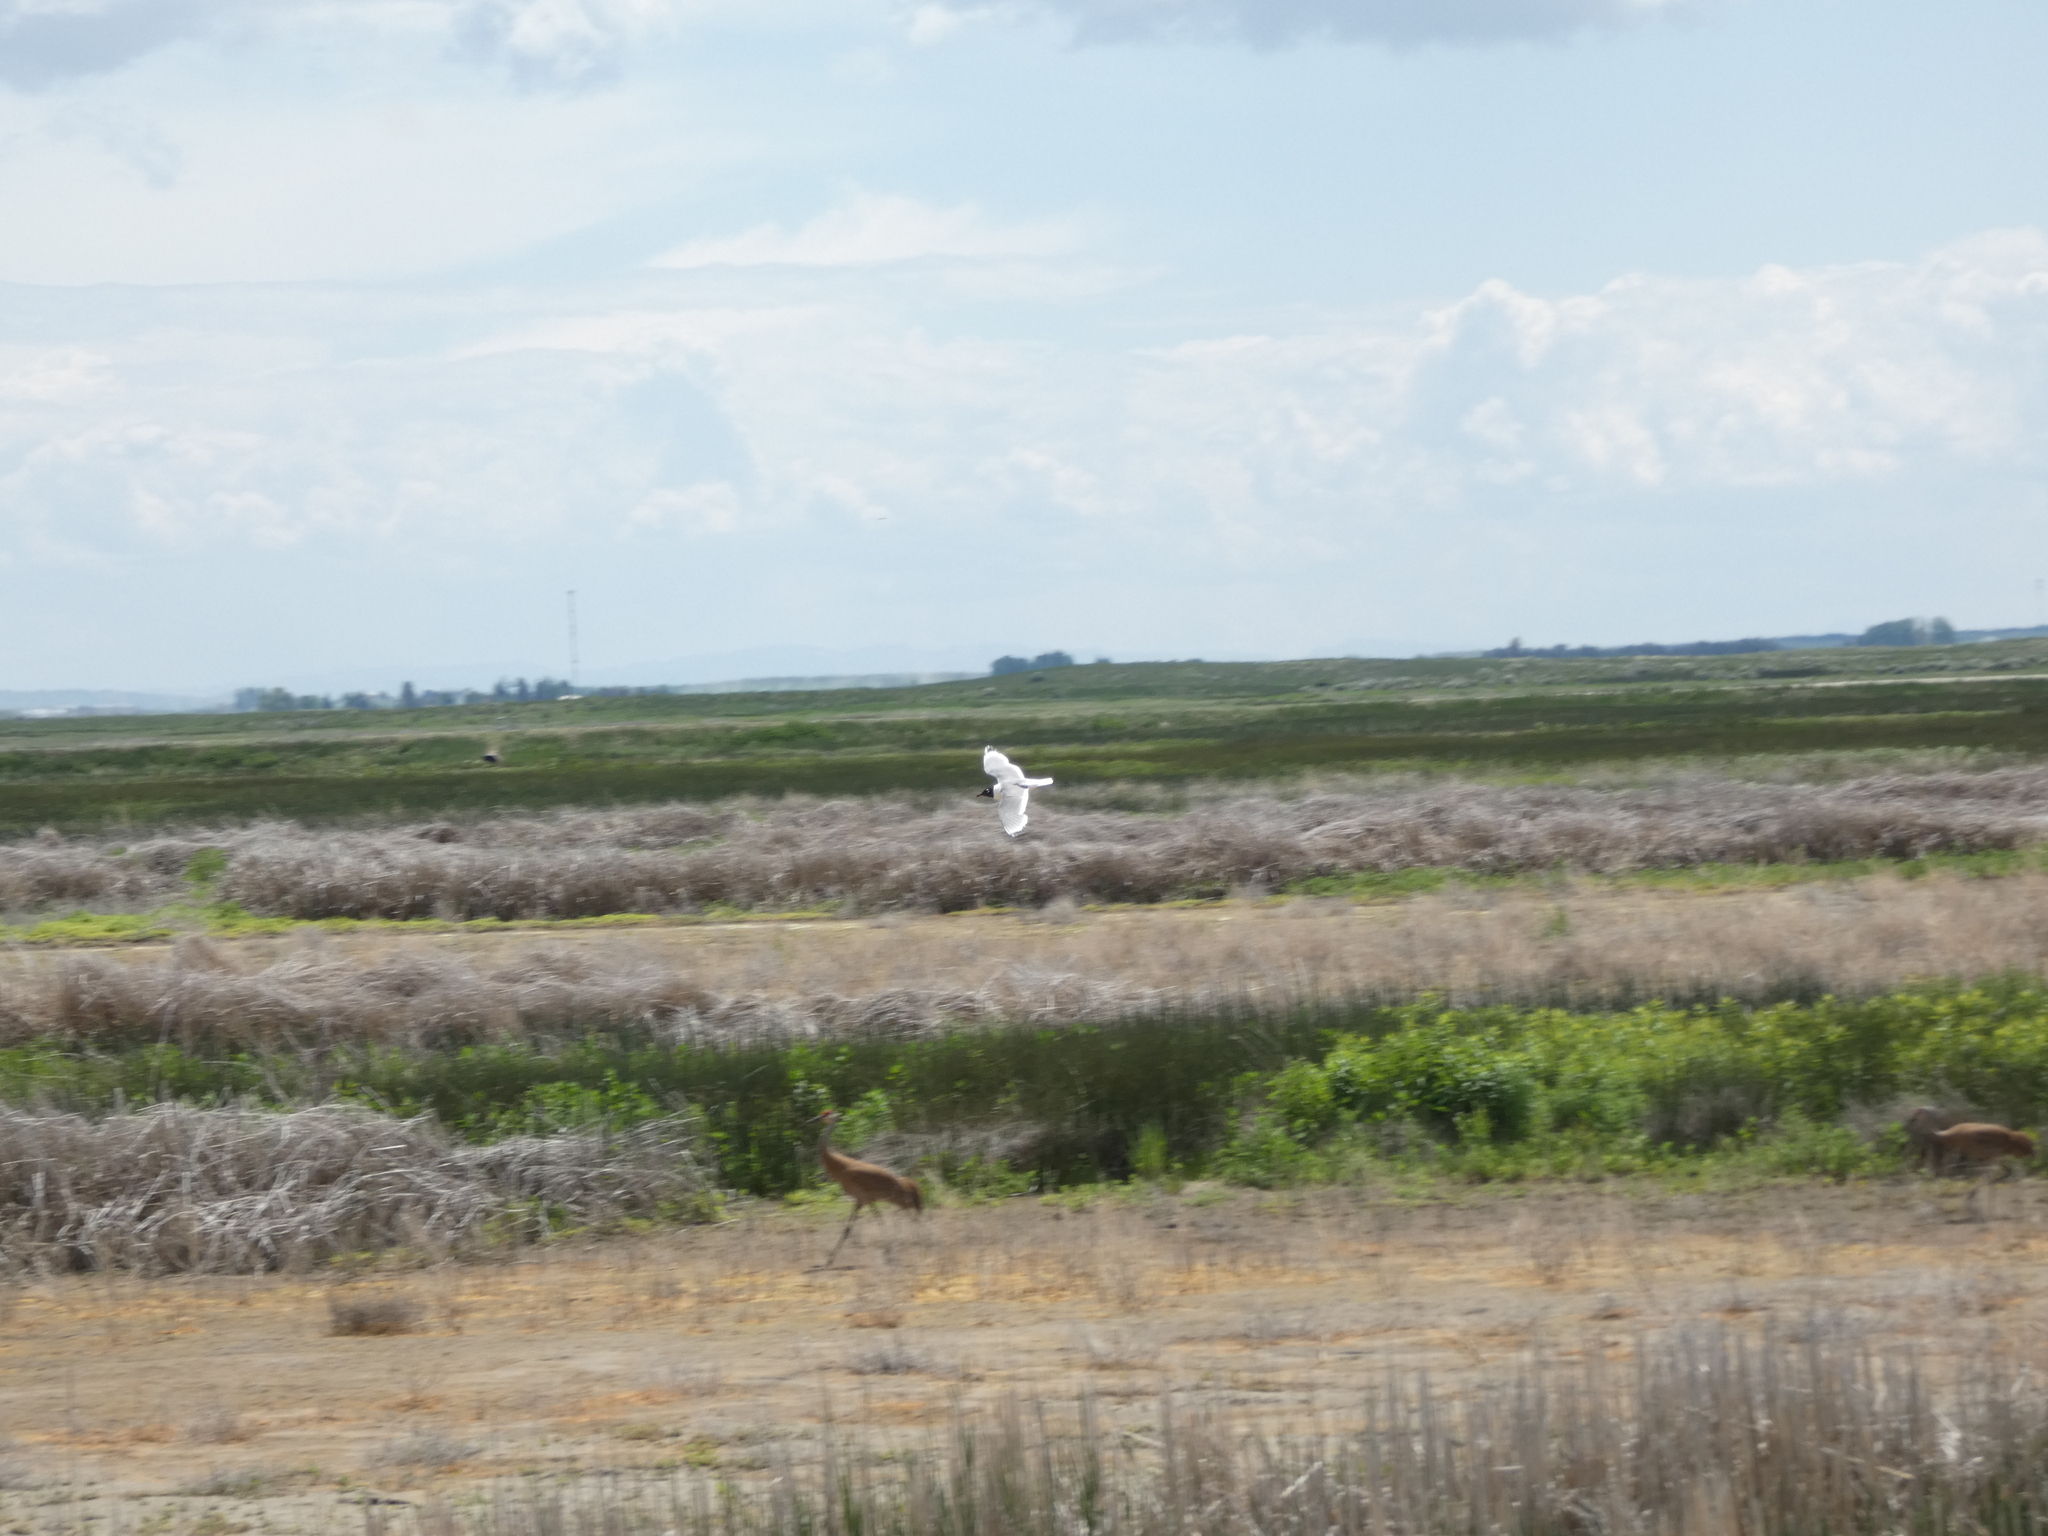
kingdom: Animalia
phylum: Chordata
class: Aves
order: Charadriiformes
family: Laridae
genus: Leucophaeus
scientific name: Leucophaeus pipixcan
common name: Franklin's gull
